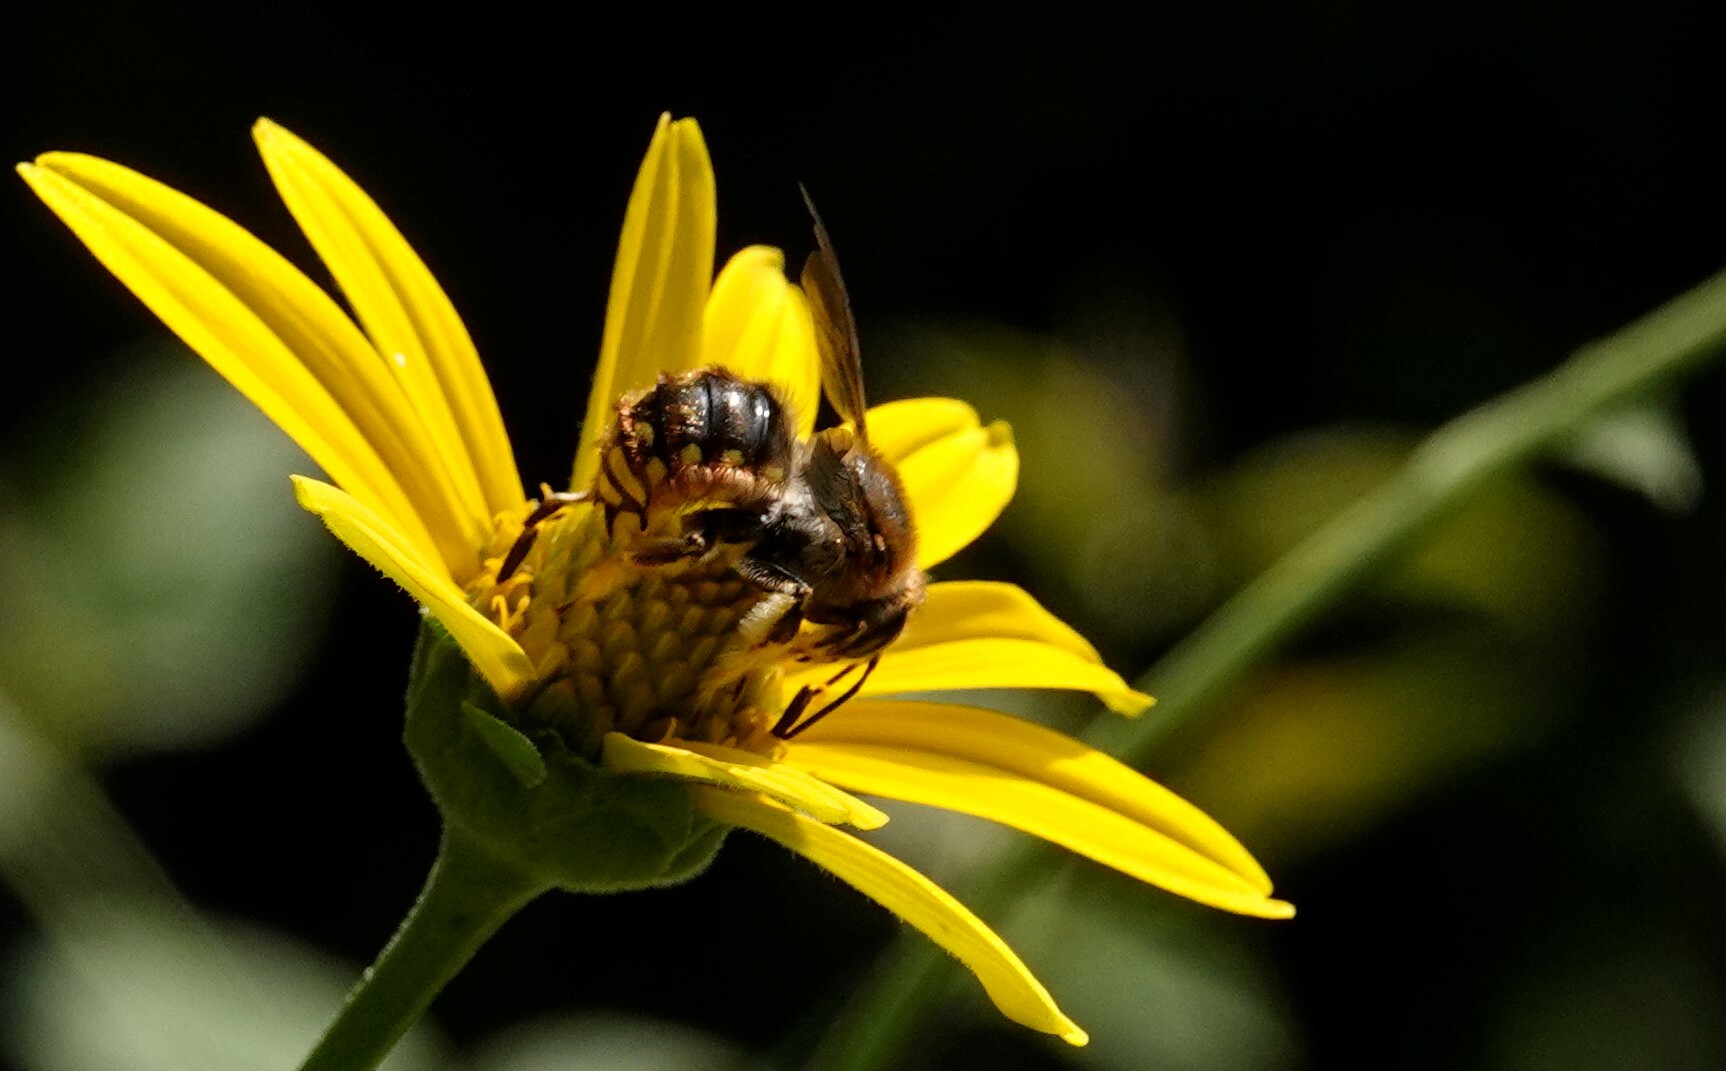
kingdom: Animalia
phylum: Arthropoda
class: Insecta
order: Hymenoptera
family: Megachilidae
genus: Anthidium
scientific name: Anthidium manicatum
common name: Wool carder bee
